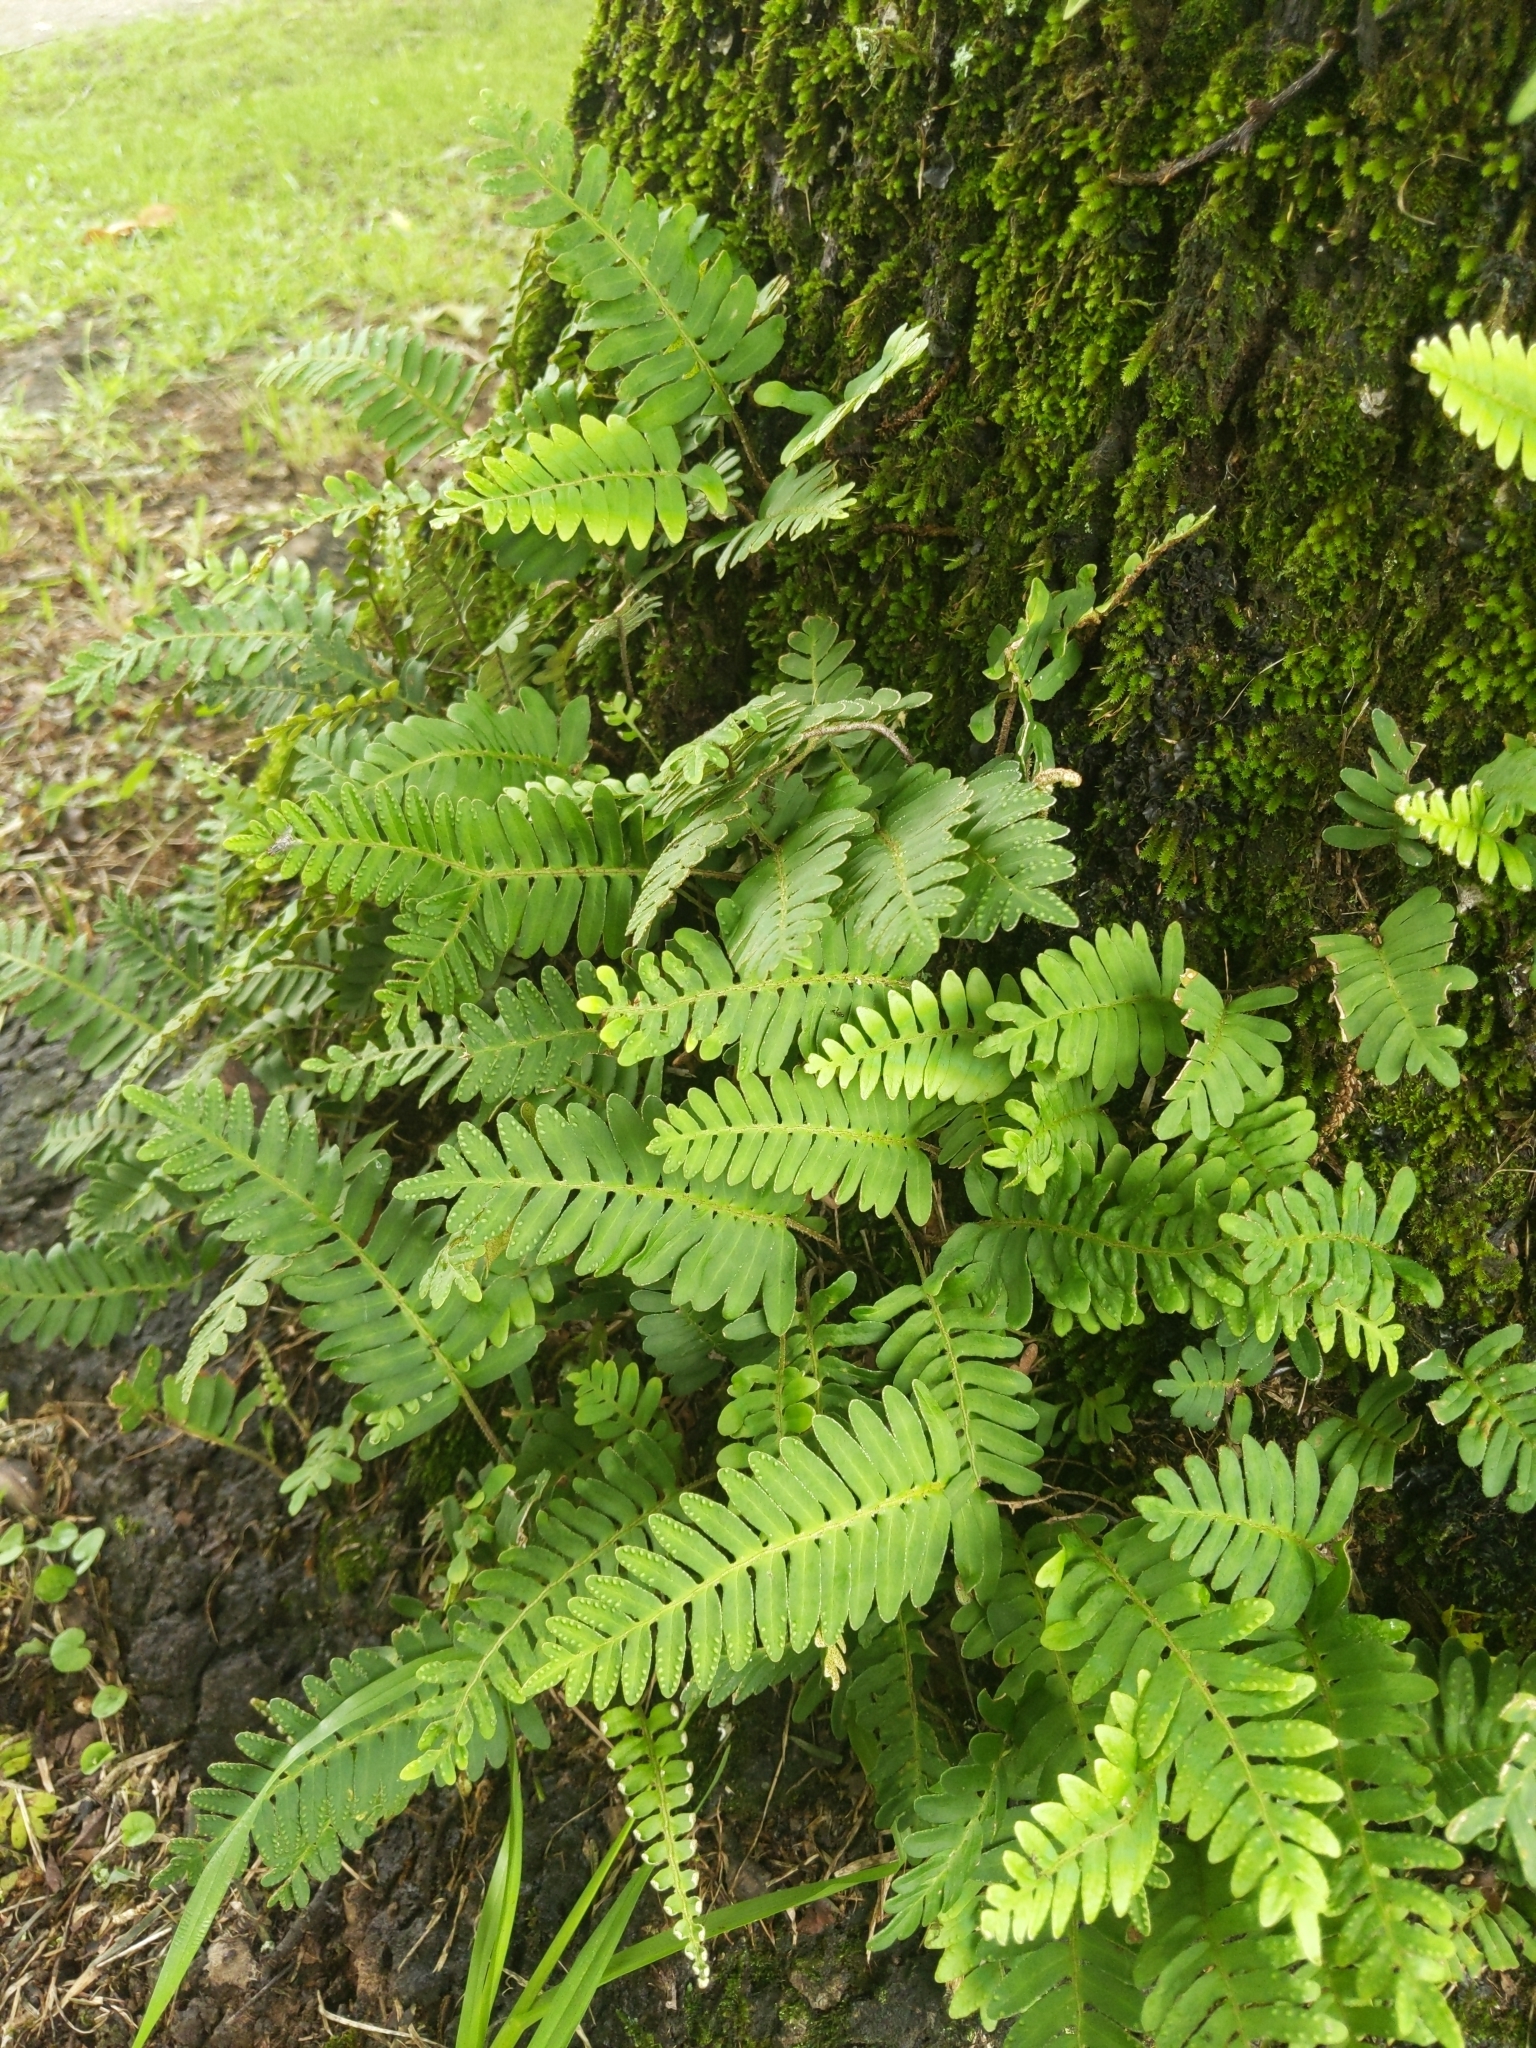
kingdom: Plantae
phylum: Tracheophyta
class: Polypodiopsida
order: Polypodiales
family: Polypodiaceae
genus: Pleopeltis
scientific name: Pleopeltis michauxiana
